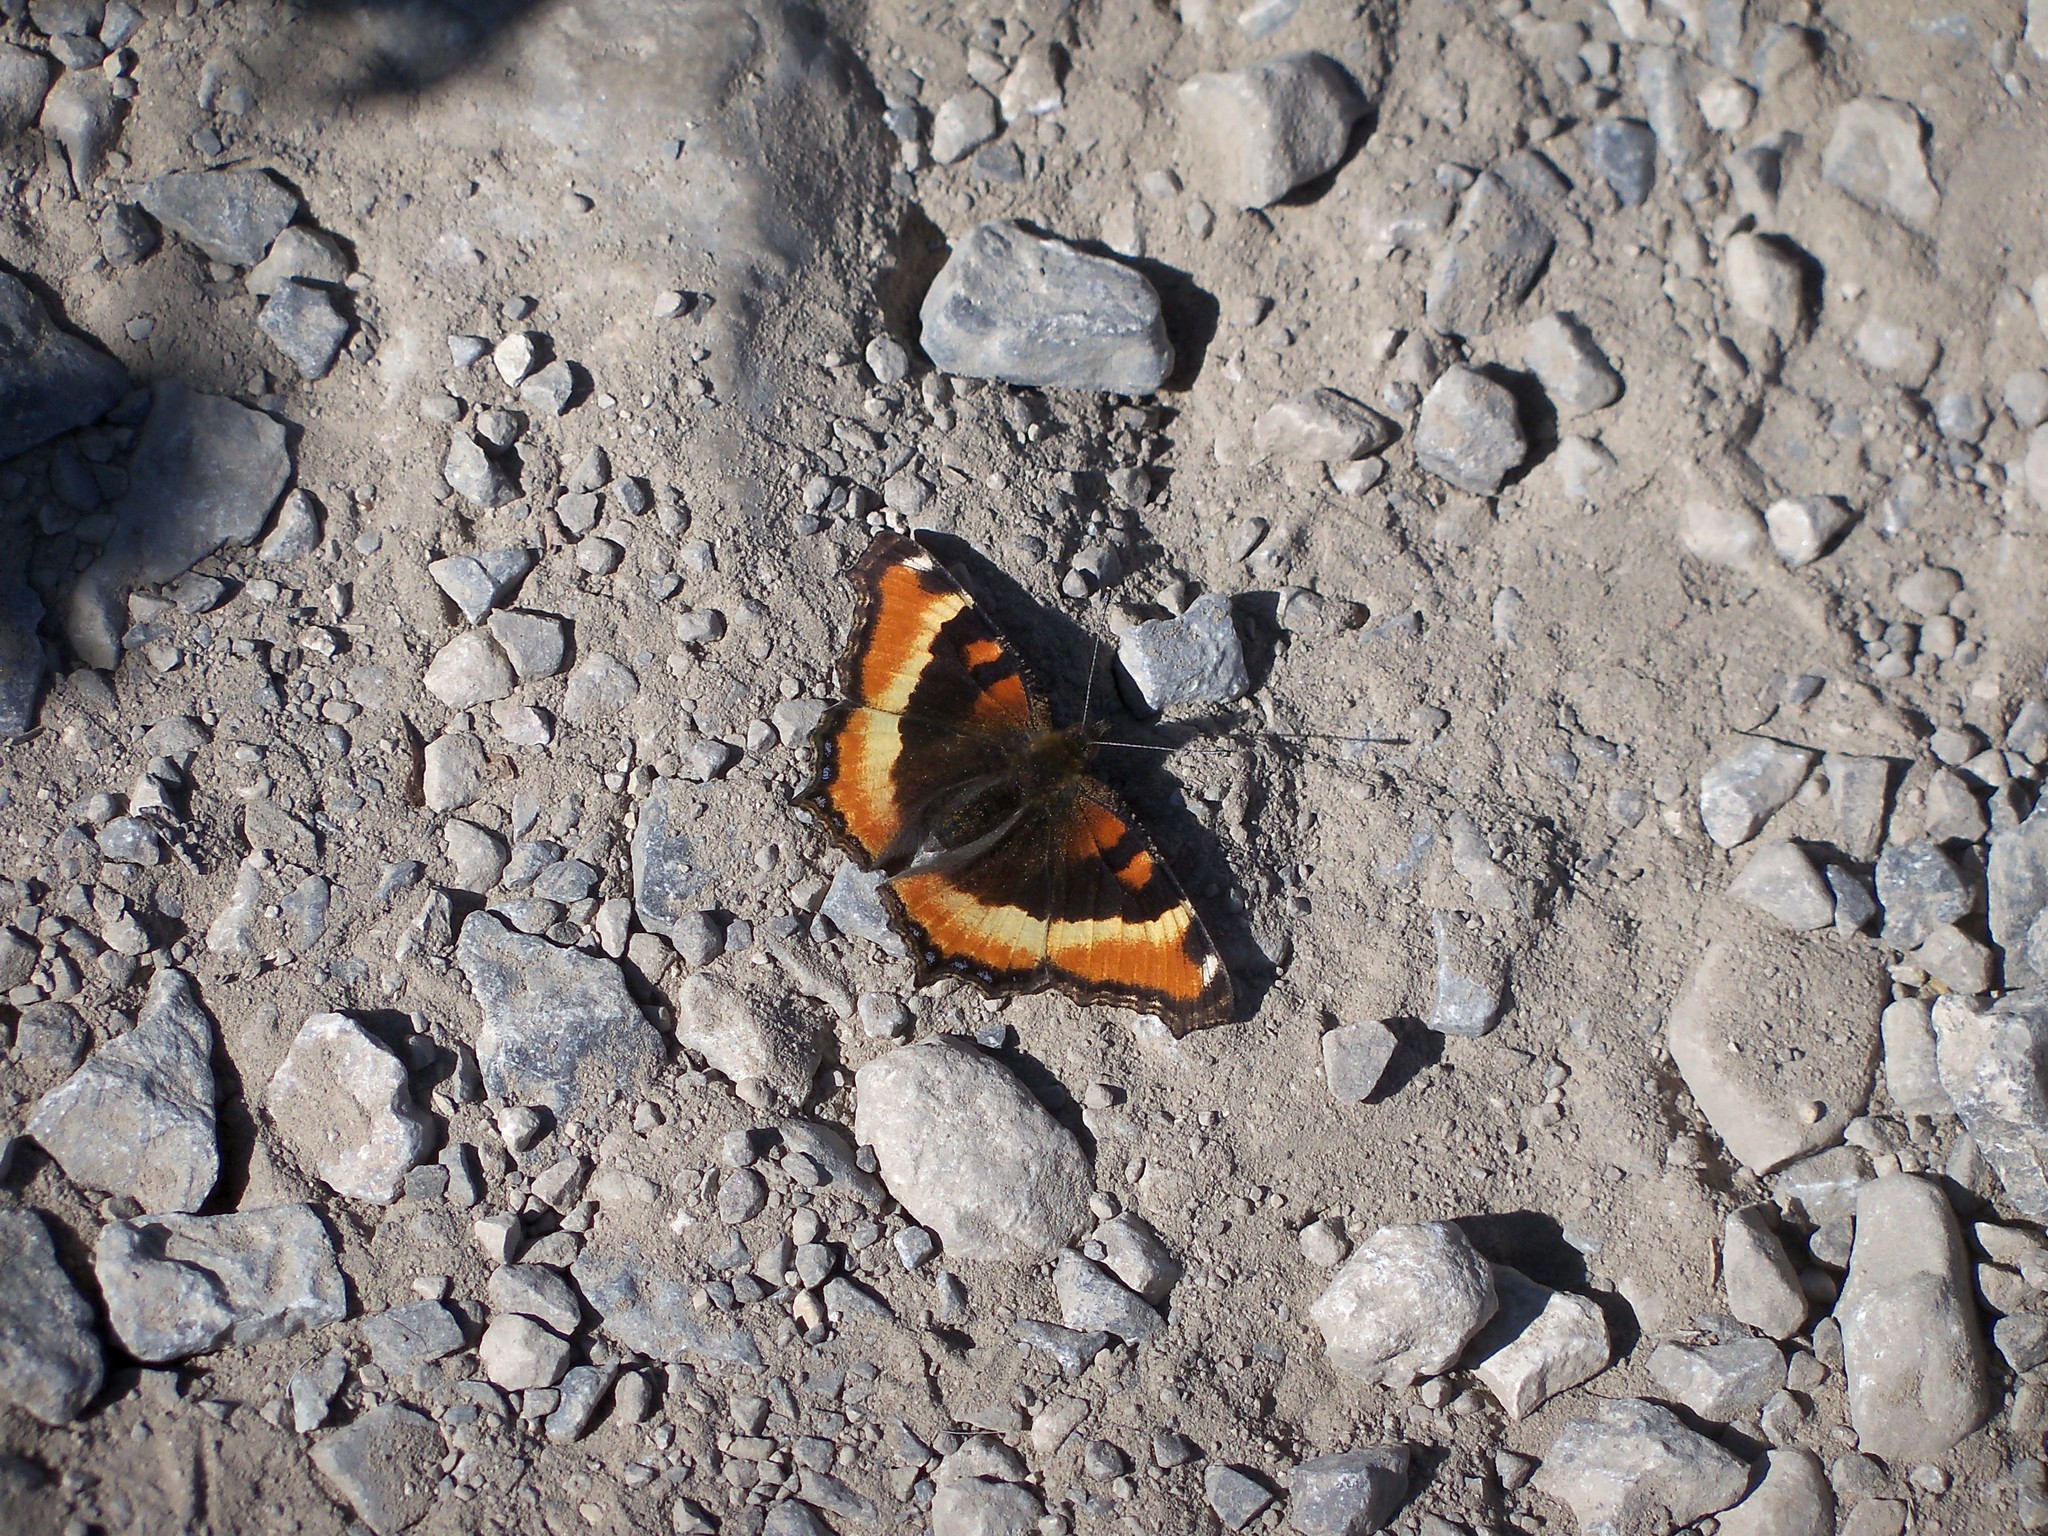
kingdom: Animalia
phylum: Arthropoda
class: Insecta
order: Lepidoptera
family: Nymphalidae
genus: Aglais
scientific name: Aglais milberti
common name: Milbert's tortoiseshell
